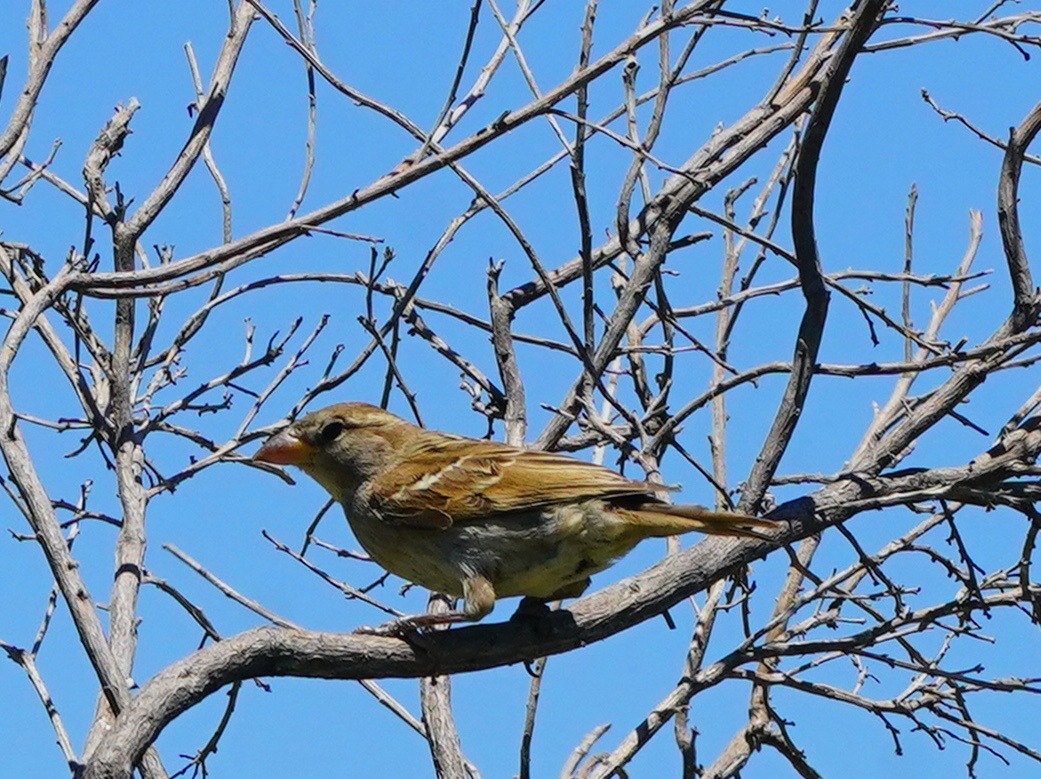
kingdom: Animalia
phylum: Chordata
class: Aves
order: Passeriformes
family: Passeridae
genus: Passer
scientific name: Passer domesticus
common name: House sparrow
